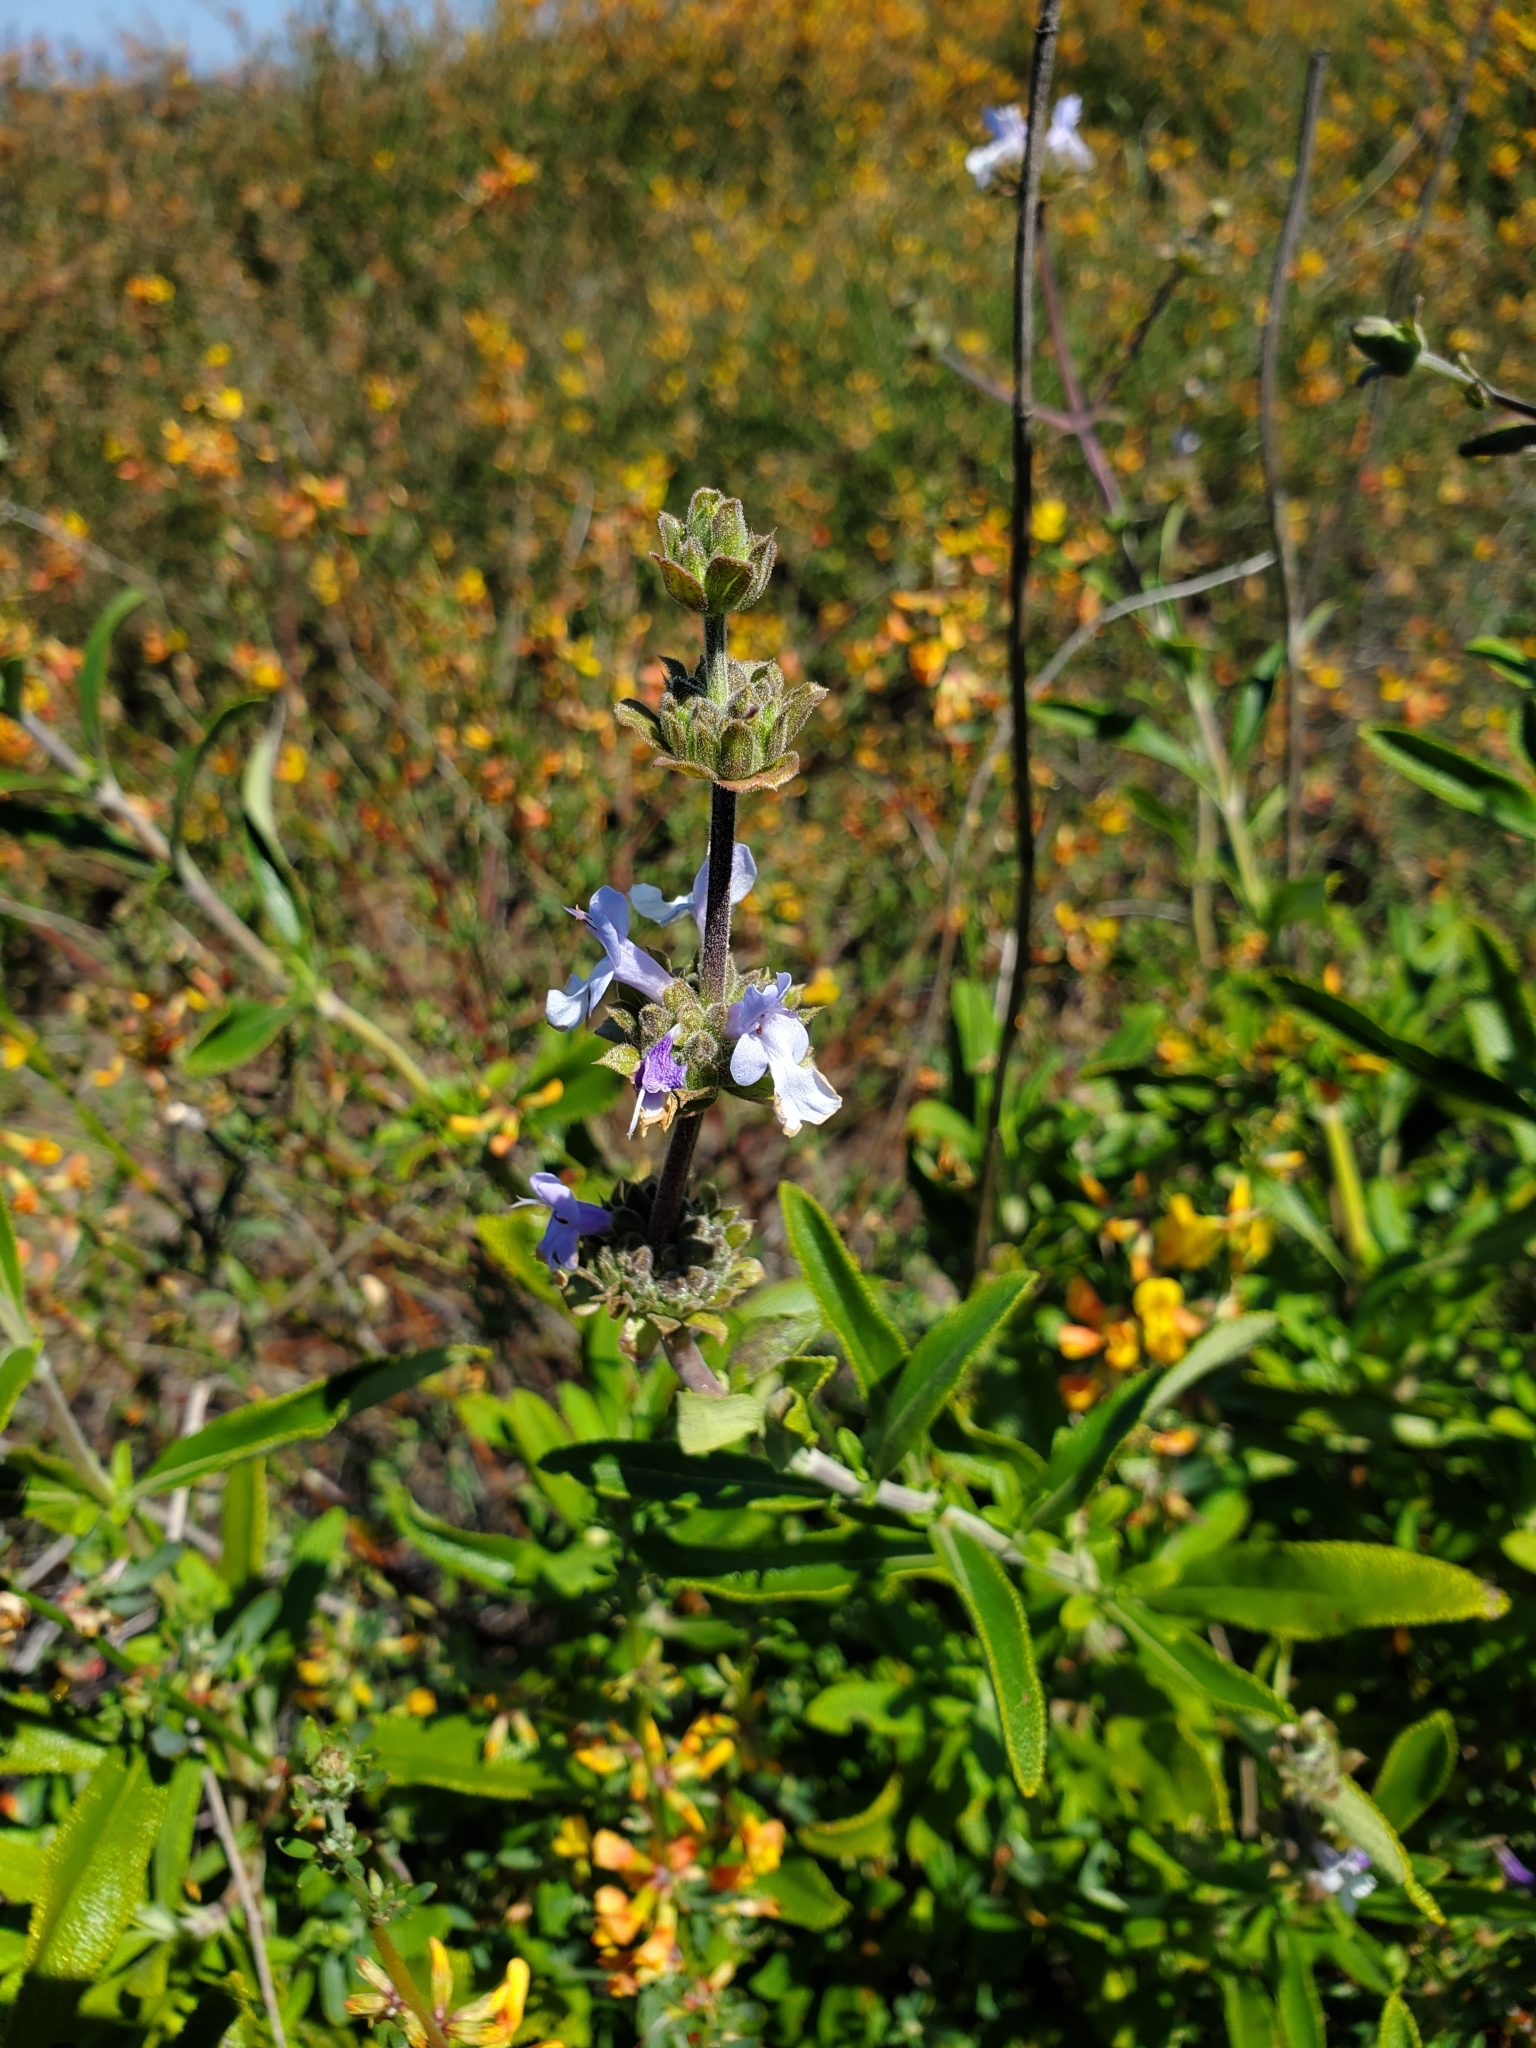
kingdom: Plantae
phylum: Tracheophyta
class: Magnoliopsida
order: Lamiales
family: Lamiaceae
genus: Salvia
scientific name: Salvia mellifera
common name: Black sage
